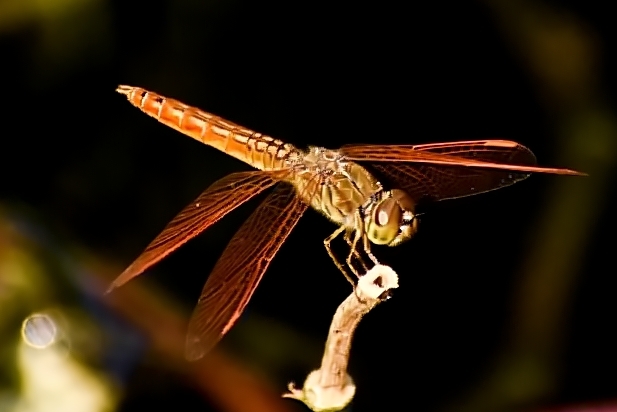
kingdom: Animalia
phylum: Arthropoda
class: Insecta
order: Odonata
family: Libellulidae
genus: Brachythemis
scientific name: Brachythemis contaminata
